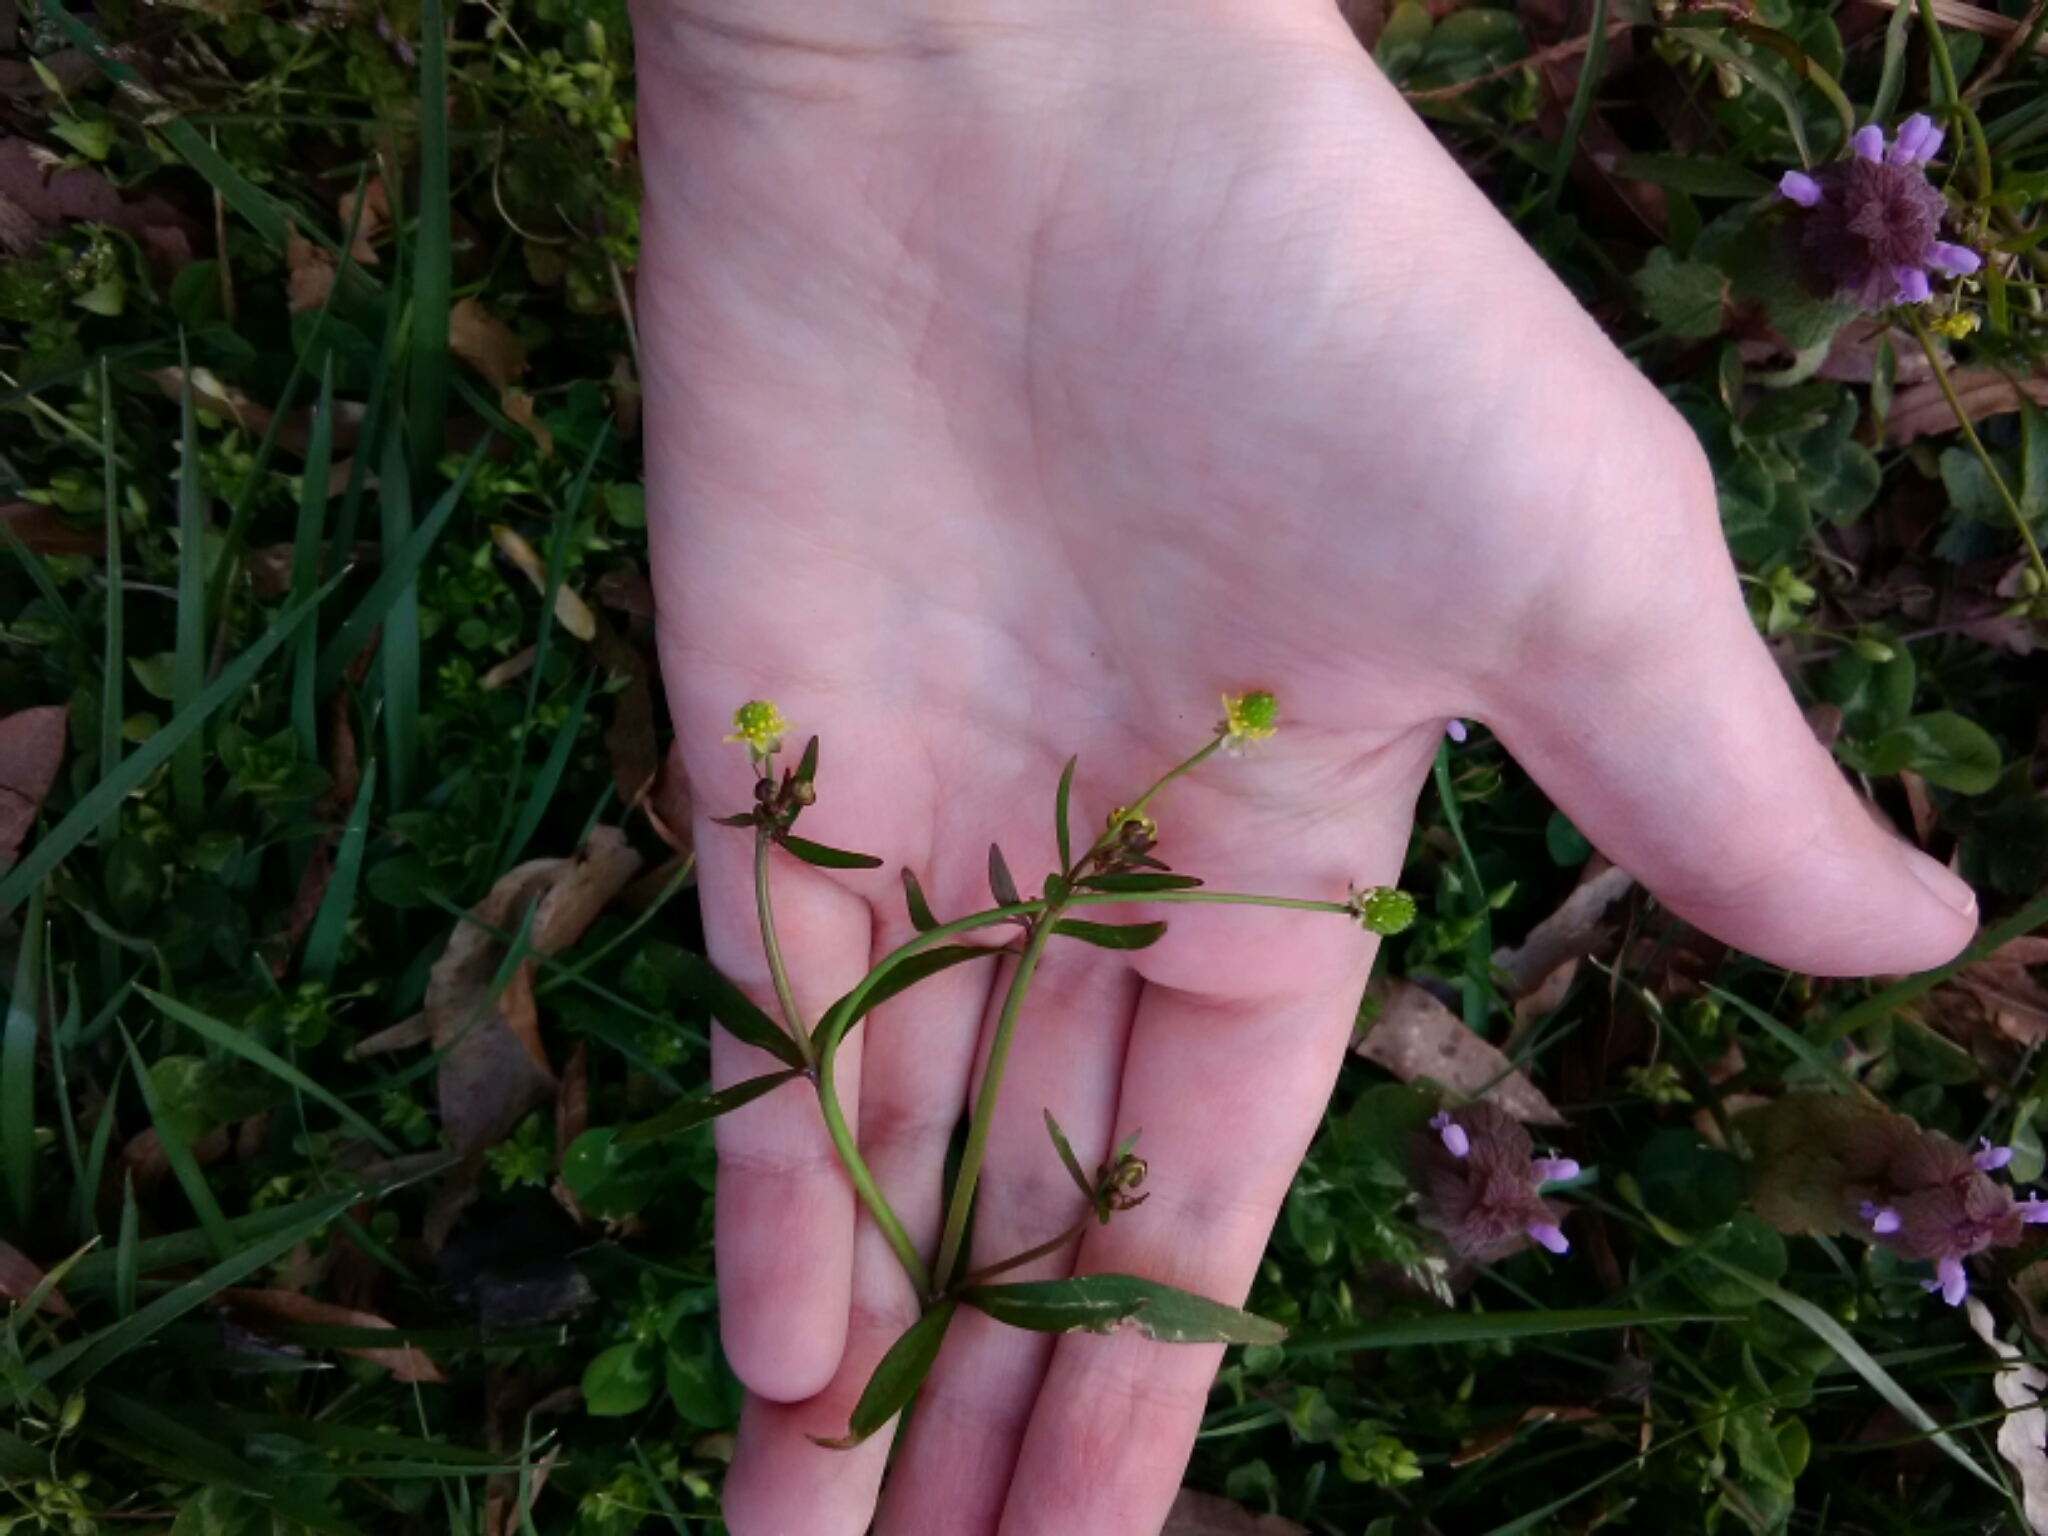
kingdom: Plantae
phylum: Tracheophyta
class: Magnoliopsida
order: Ranunculales
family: Ranunculaceae
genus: Ranunculus
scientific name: Ranunculus abortivus
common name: Early wood buttercup
